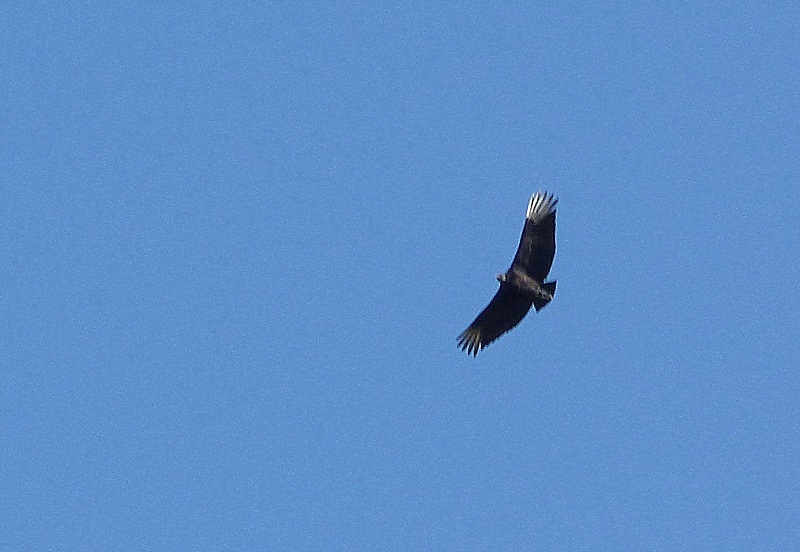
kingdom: Animalia
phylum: Chordata
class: Aves
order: Accipitriformes
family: Cathartidae
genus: Coragyps
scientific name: Coragyps atratus
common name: Black vulture
